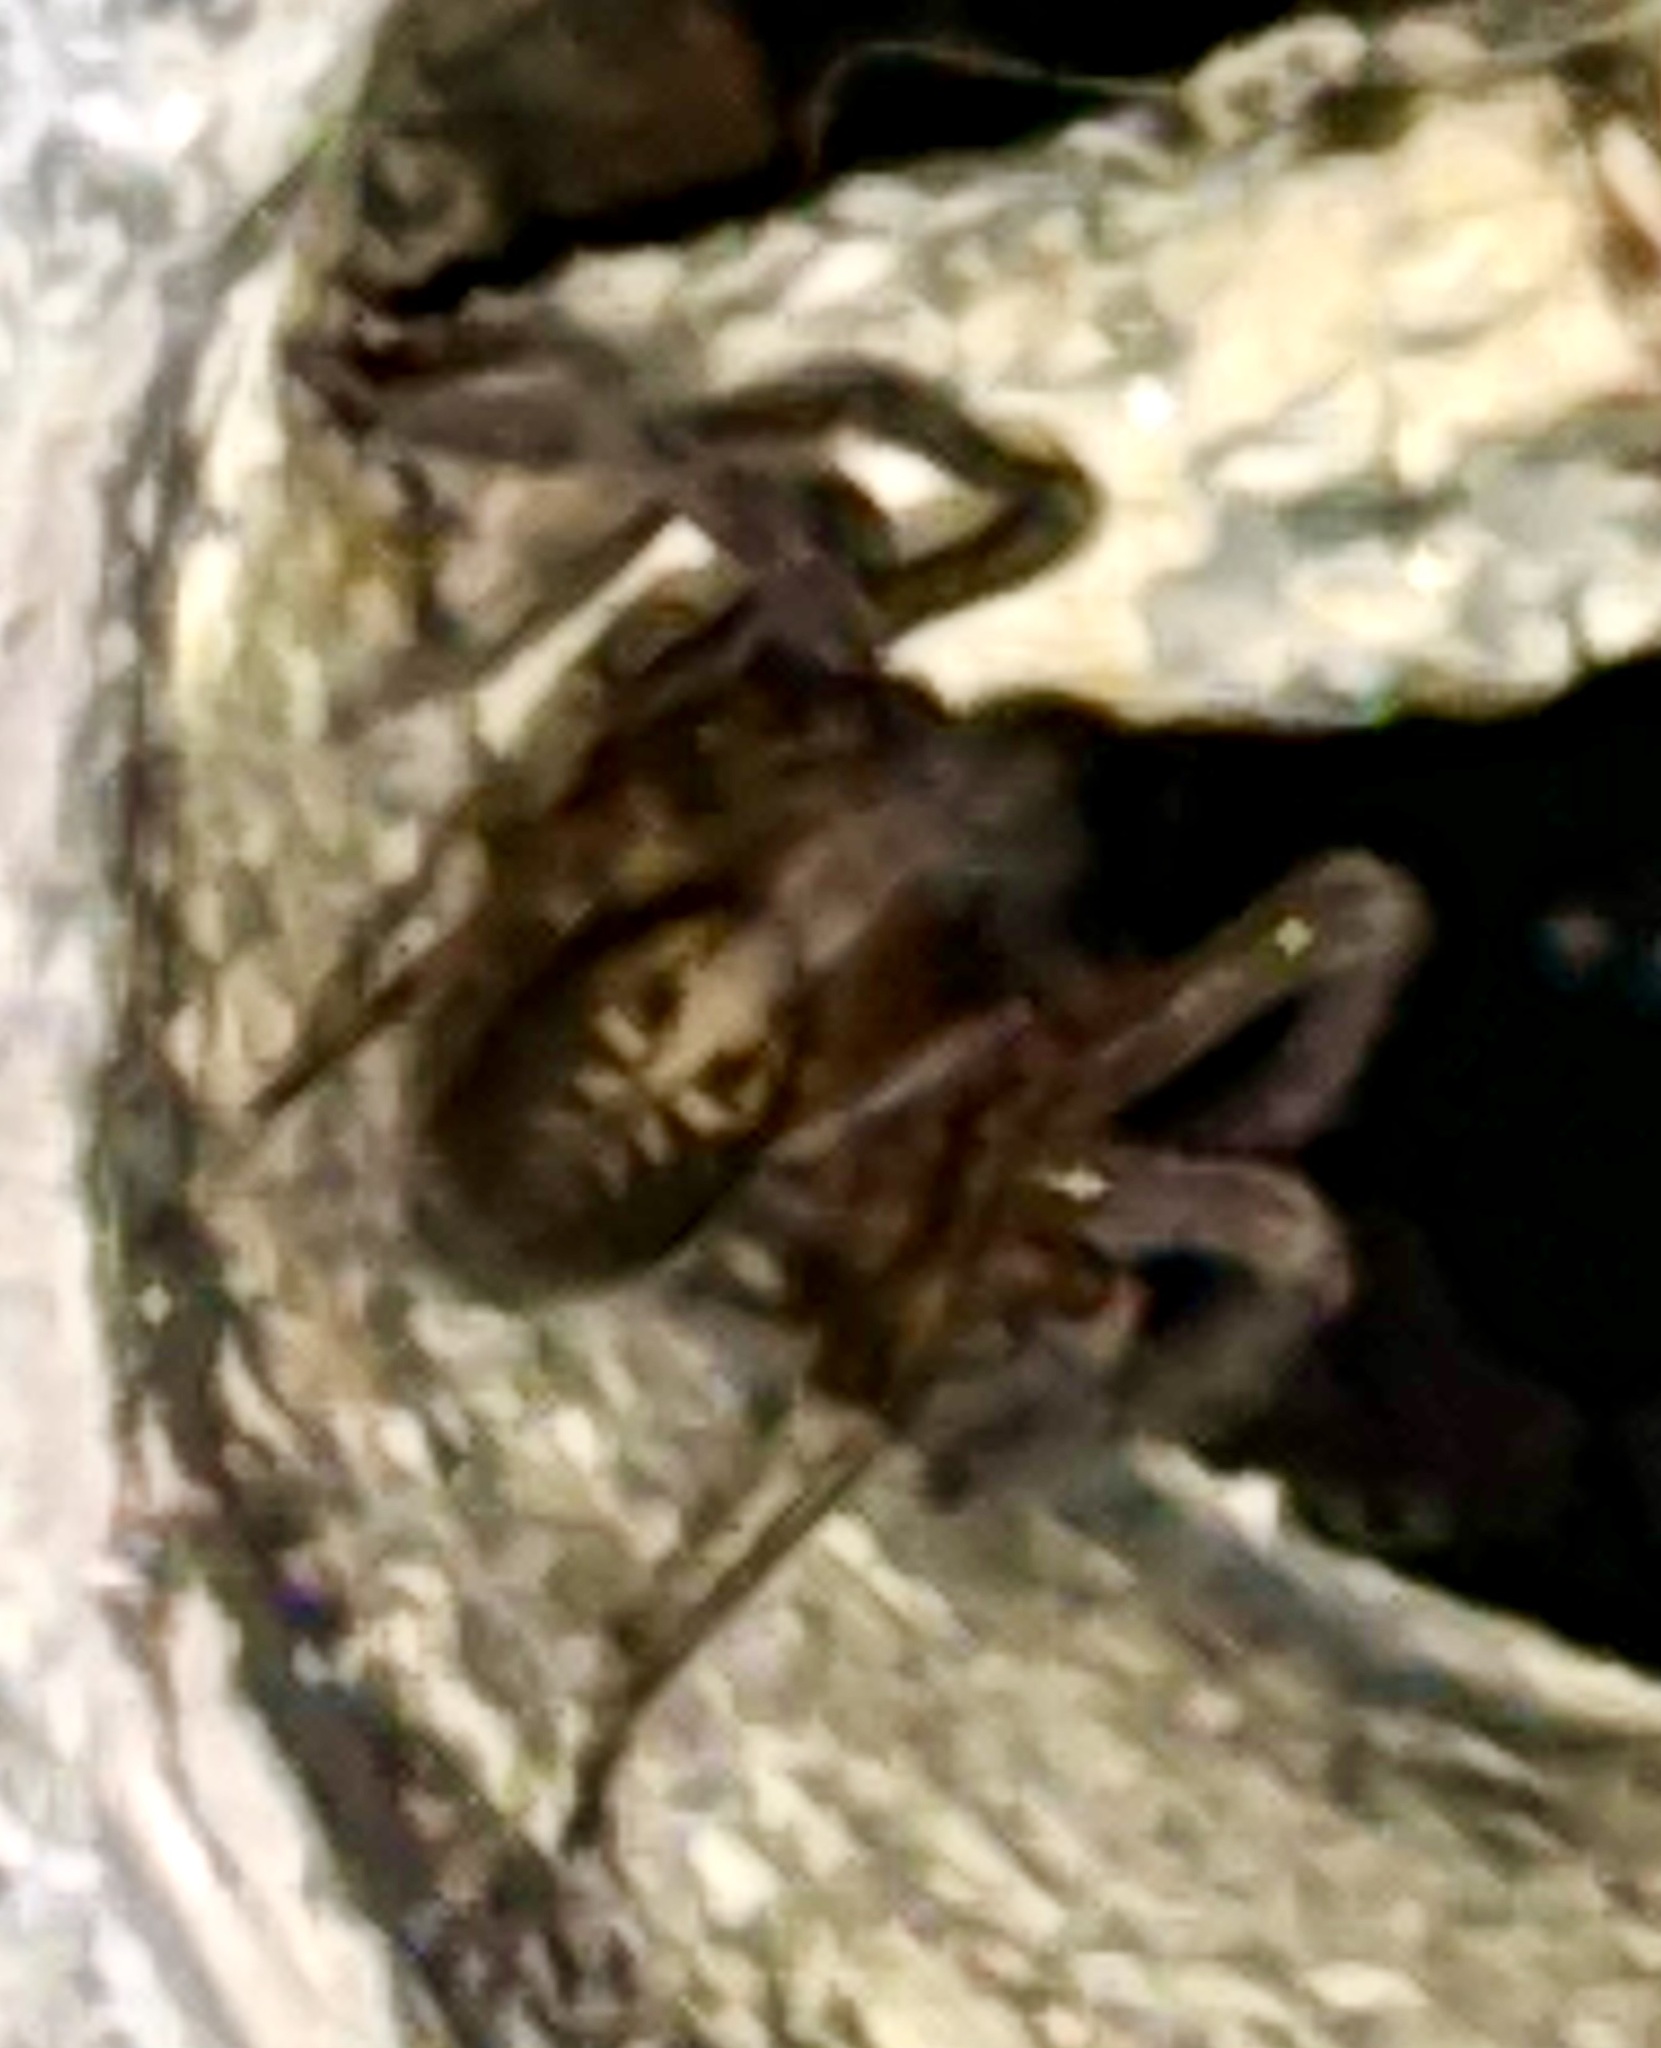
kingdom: Animalia
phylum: Arthropoda
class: Arachnida
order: Araneae
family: Amaurobiidae
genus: Amaurobius
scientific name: Amaurobius ferox
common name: Black laceweaver
